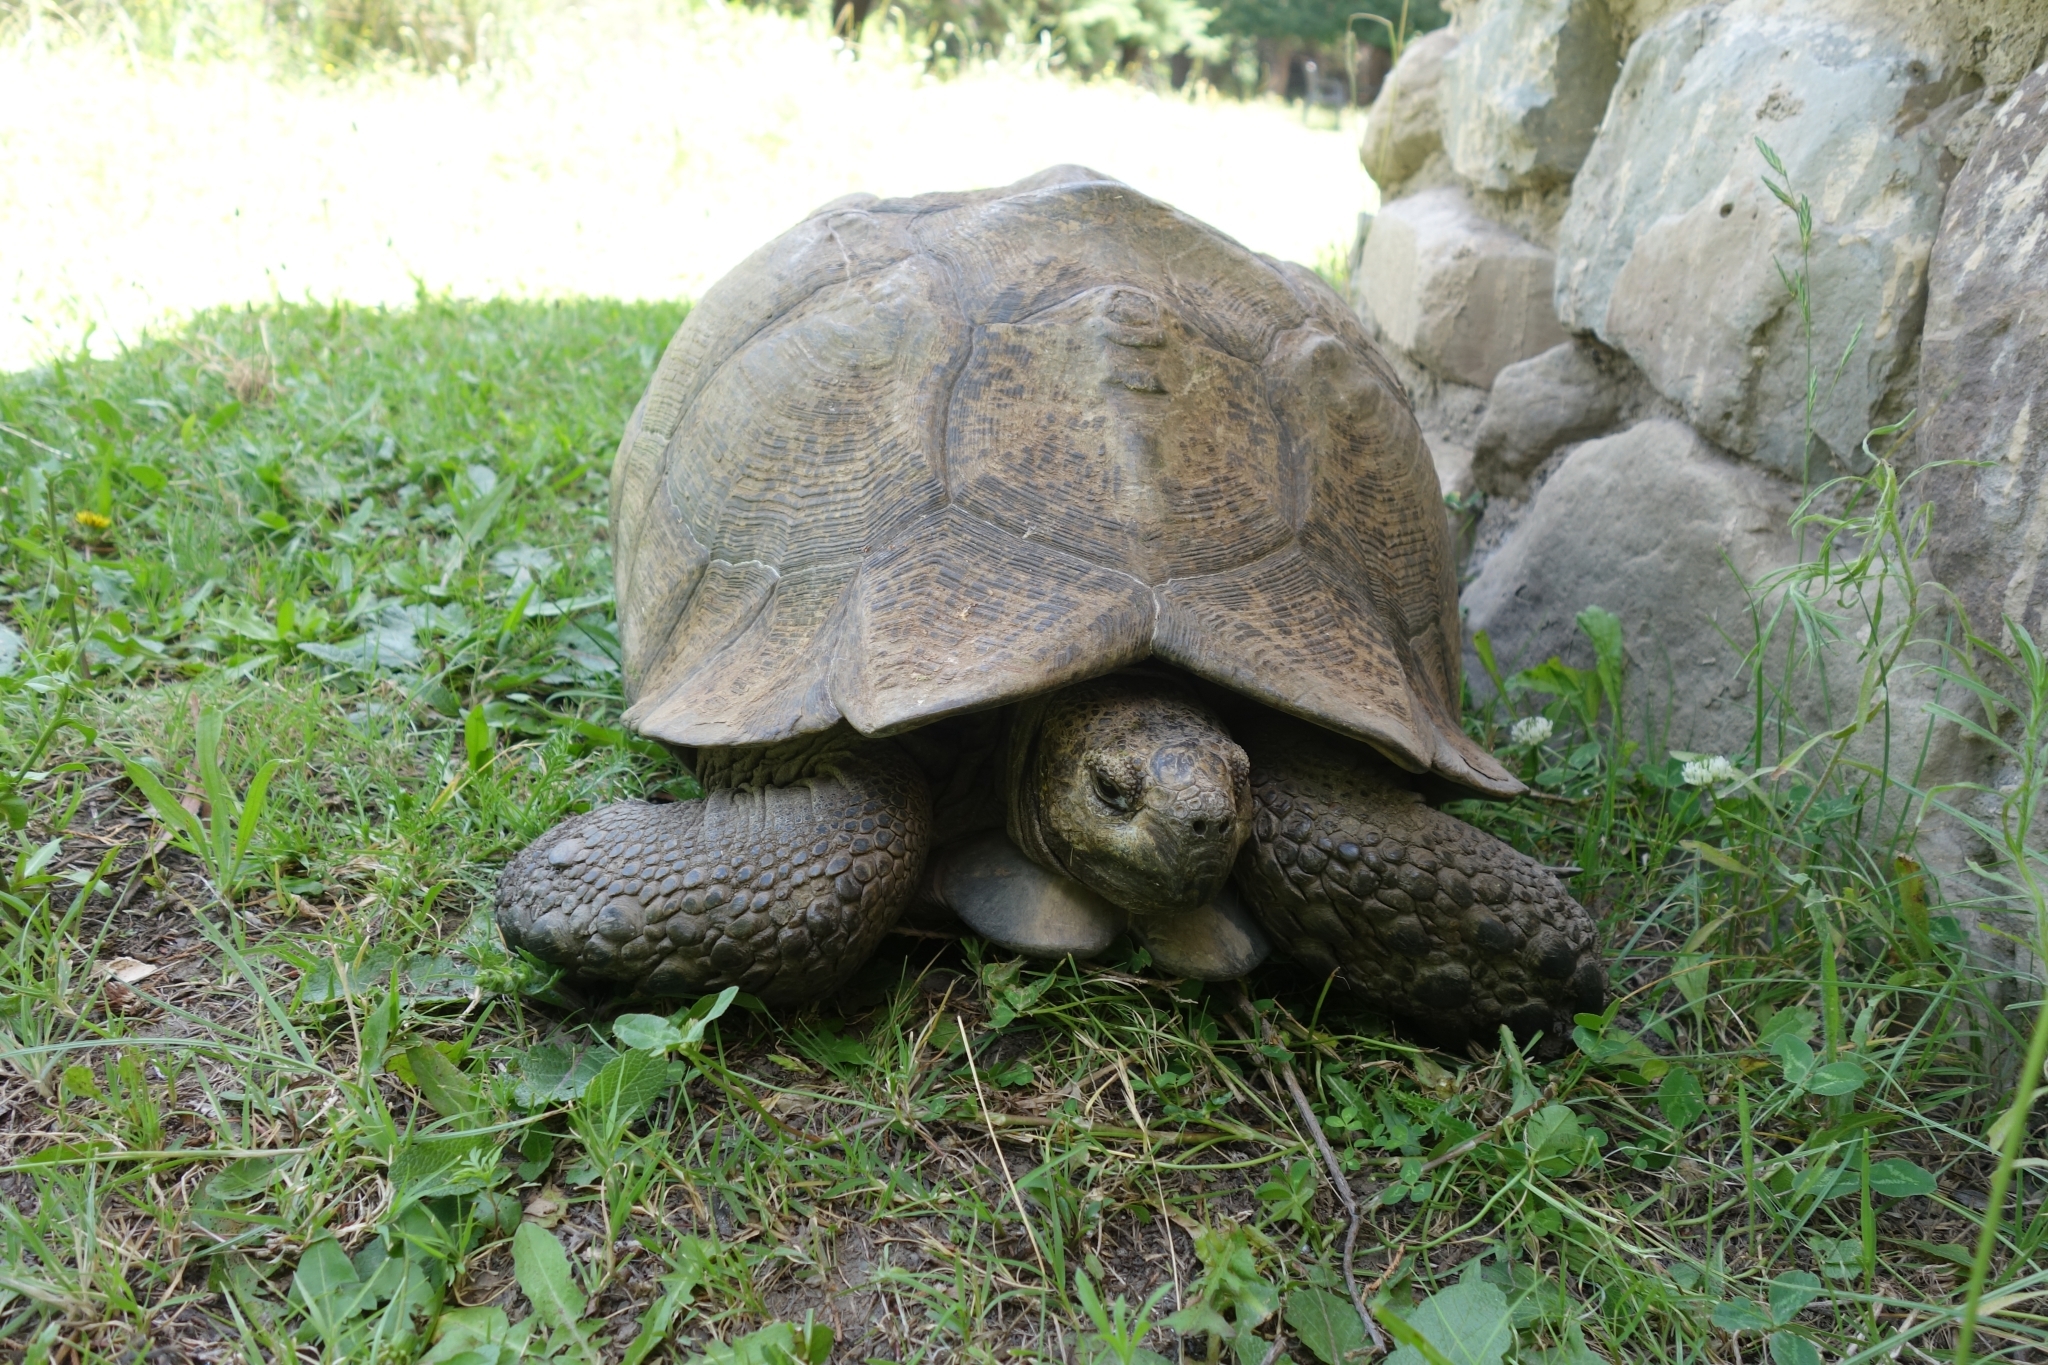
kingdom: Animalia
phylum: Chordata
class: Testudines
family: Testudinidae
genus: Stigmochelys
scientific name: Stigmochelys pardalis
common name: Leopard tortoise
